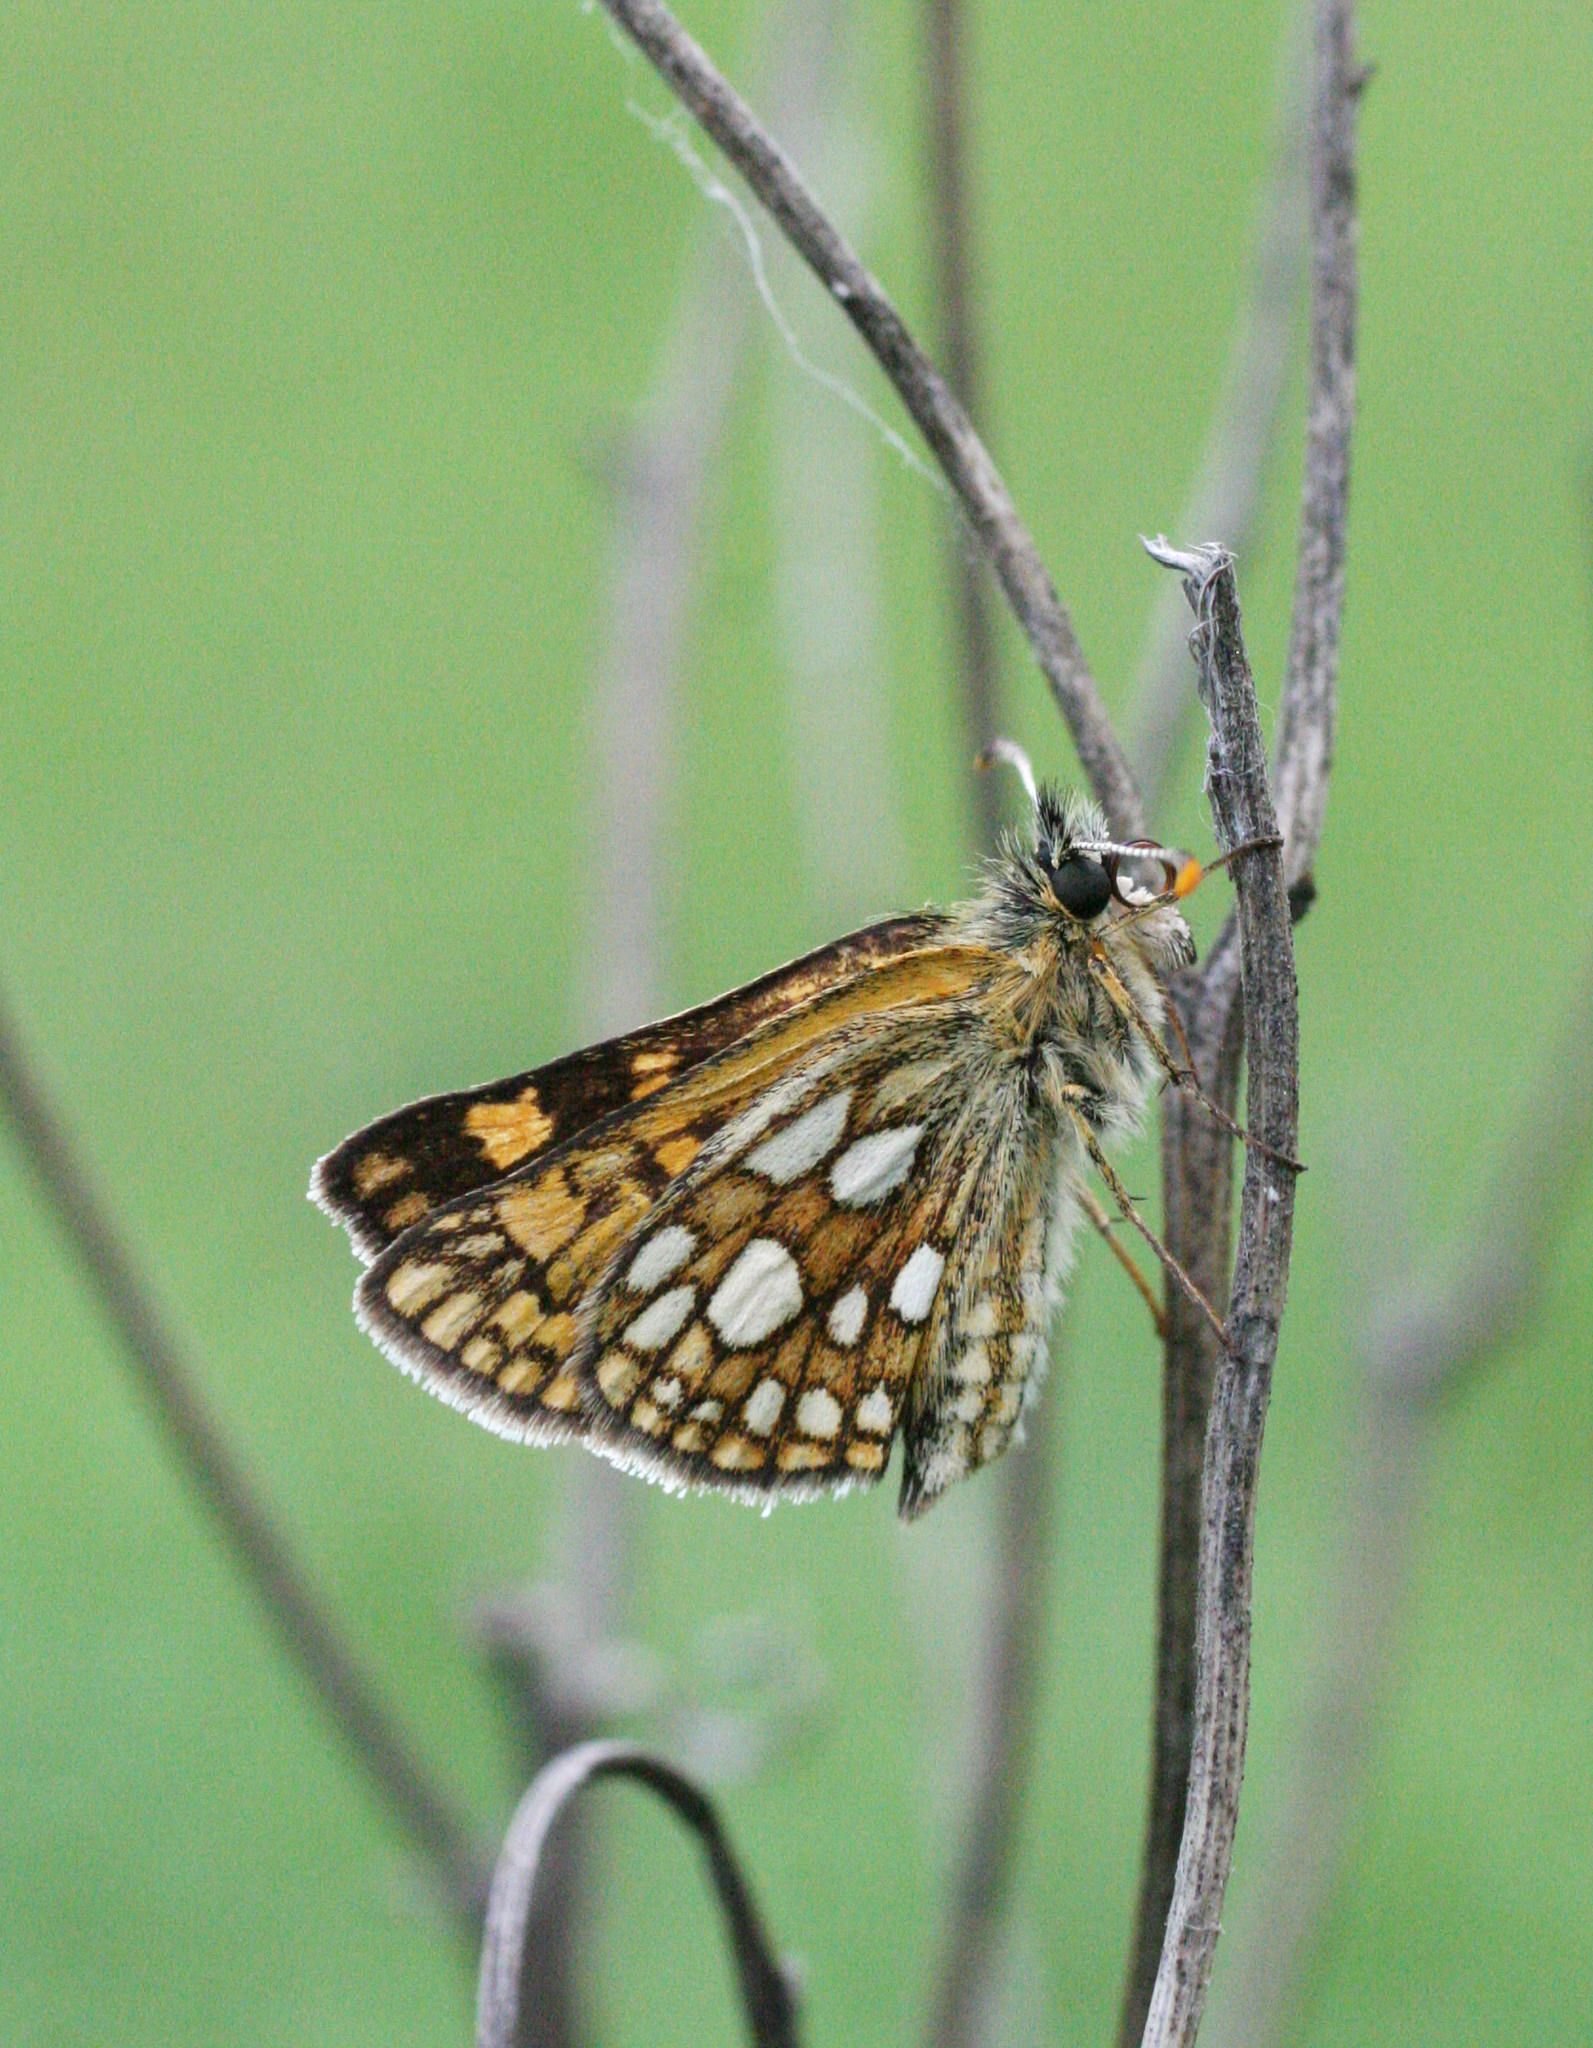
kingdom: Animalia
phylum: Arthropoda
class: Insecta
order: Lepidoptera
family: Hesperiidae
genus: Carterocephalus
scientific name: Carterocephalus palaemon
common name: Chequered skipper
